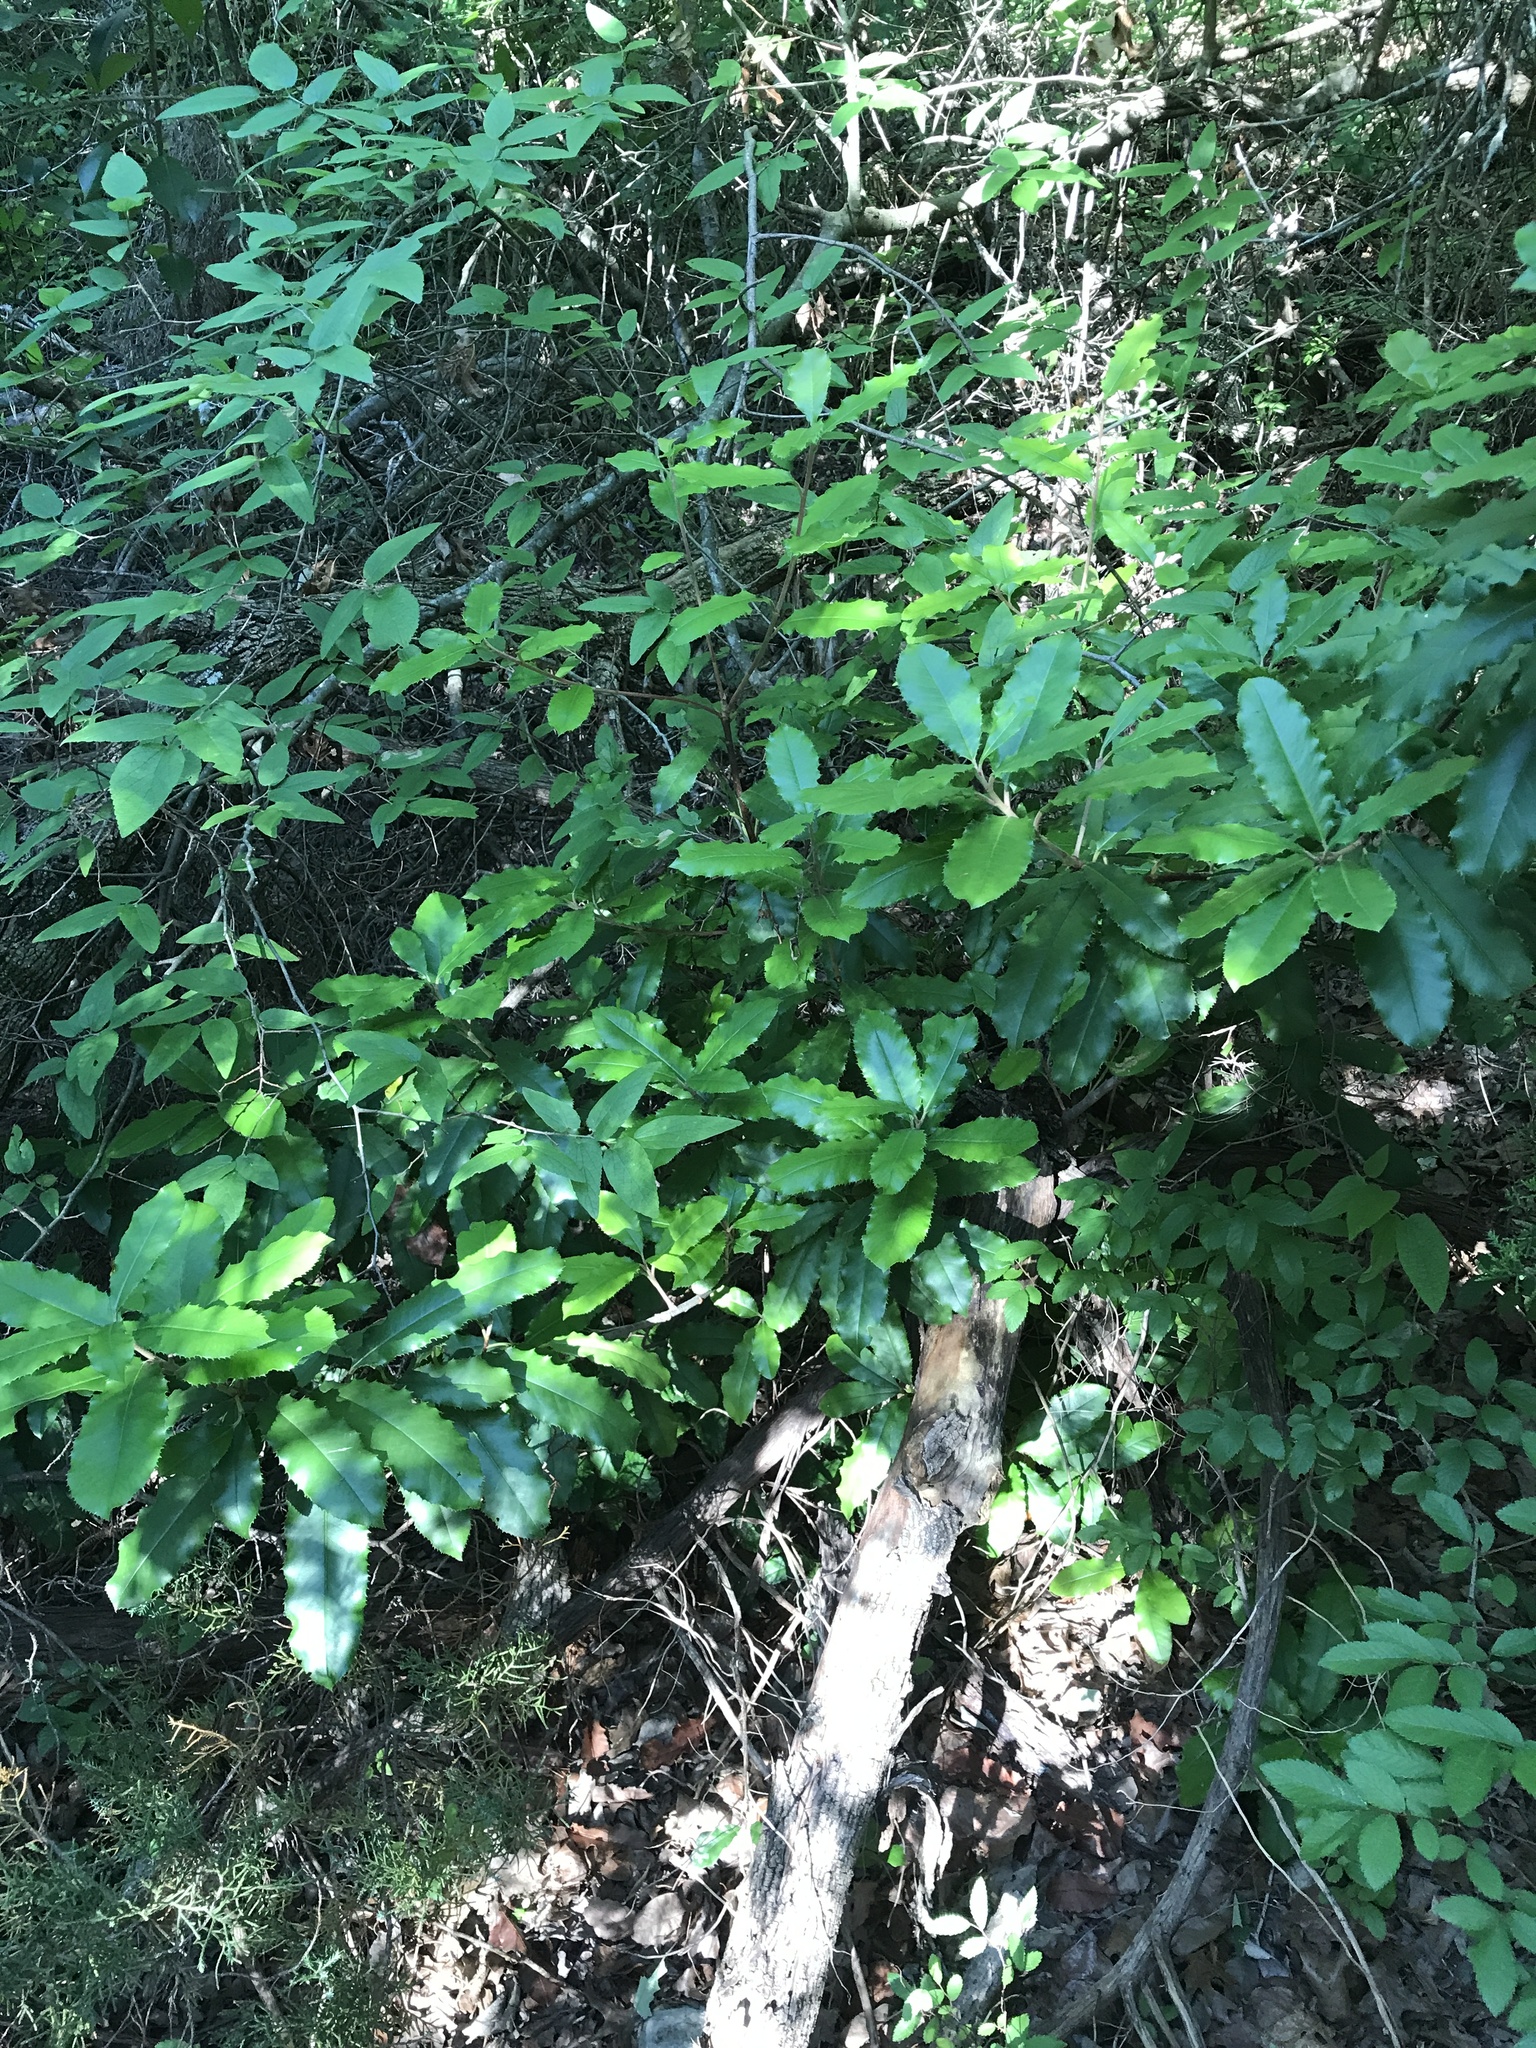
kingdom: Plantae
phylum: Tracheophyta
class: Magnoliopsida
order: Rosales
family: Rosaceae
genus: Photinia
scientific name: Photinia serratifolia
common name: Taiwanese photinia
